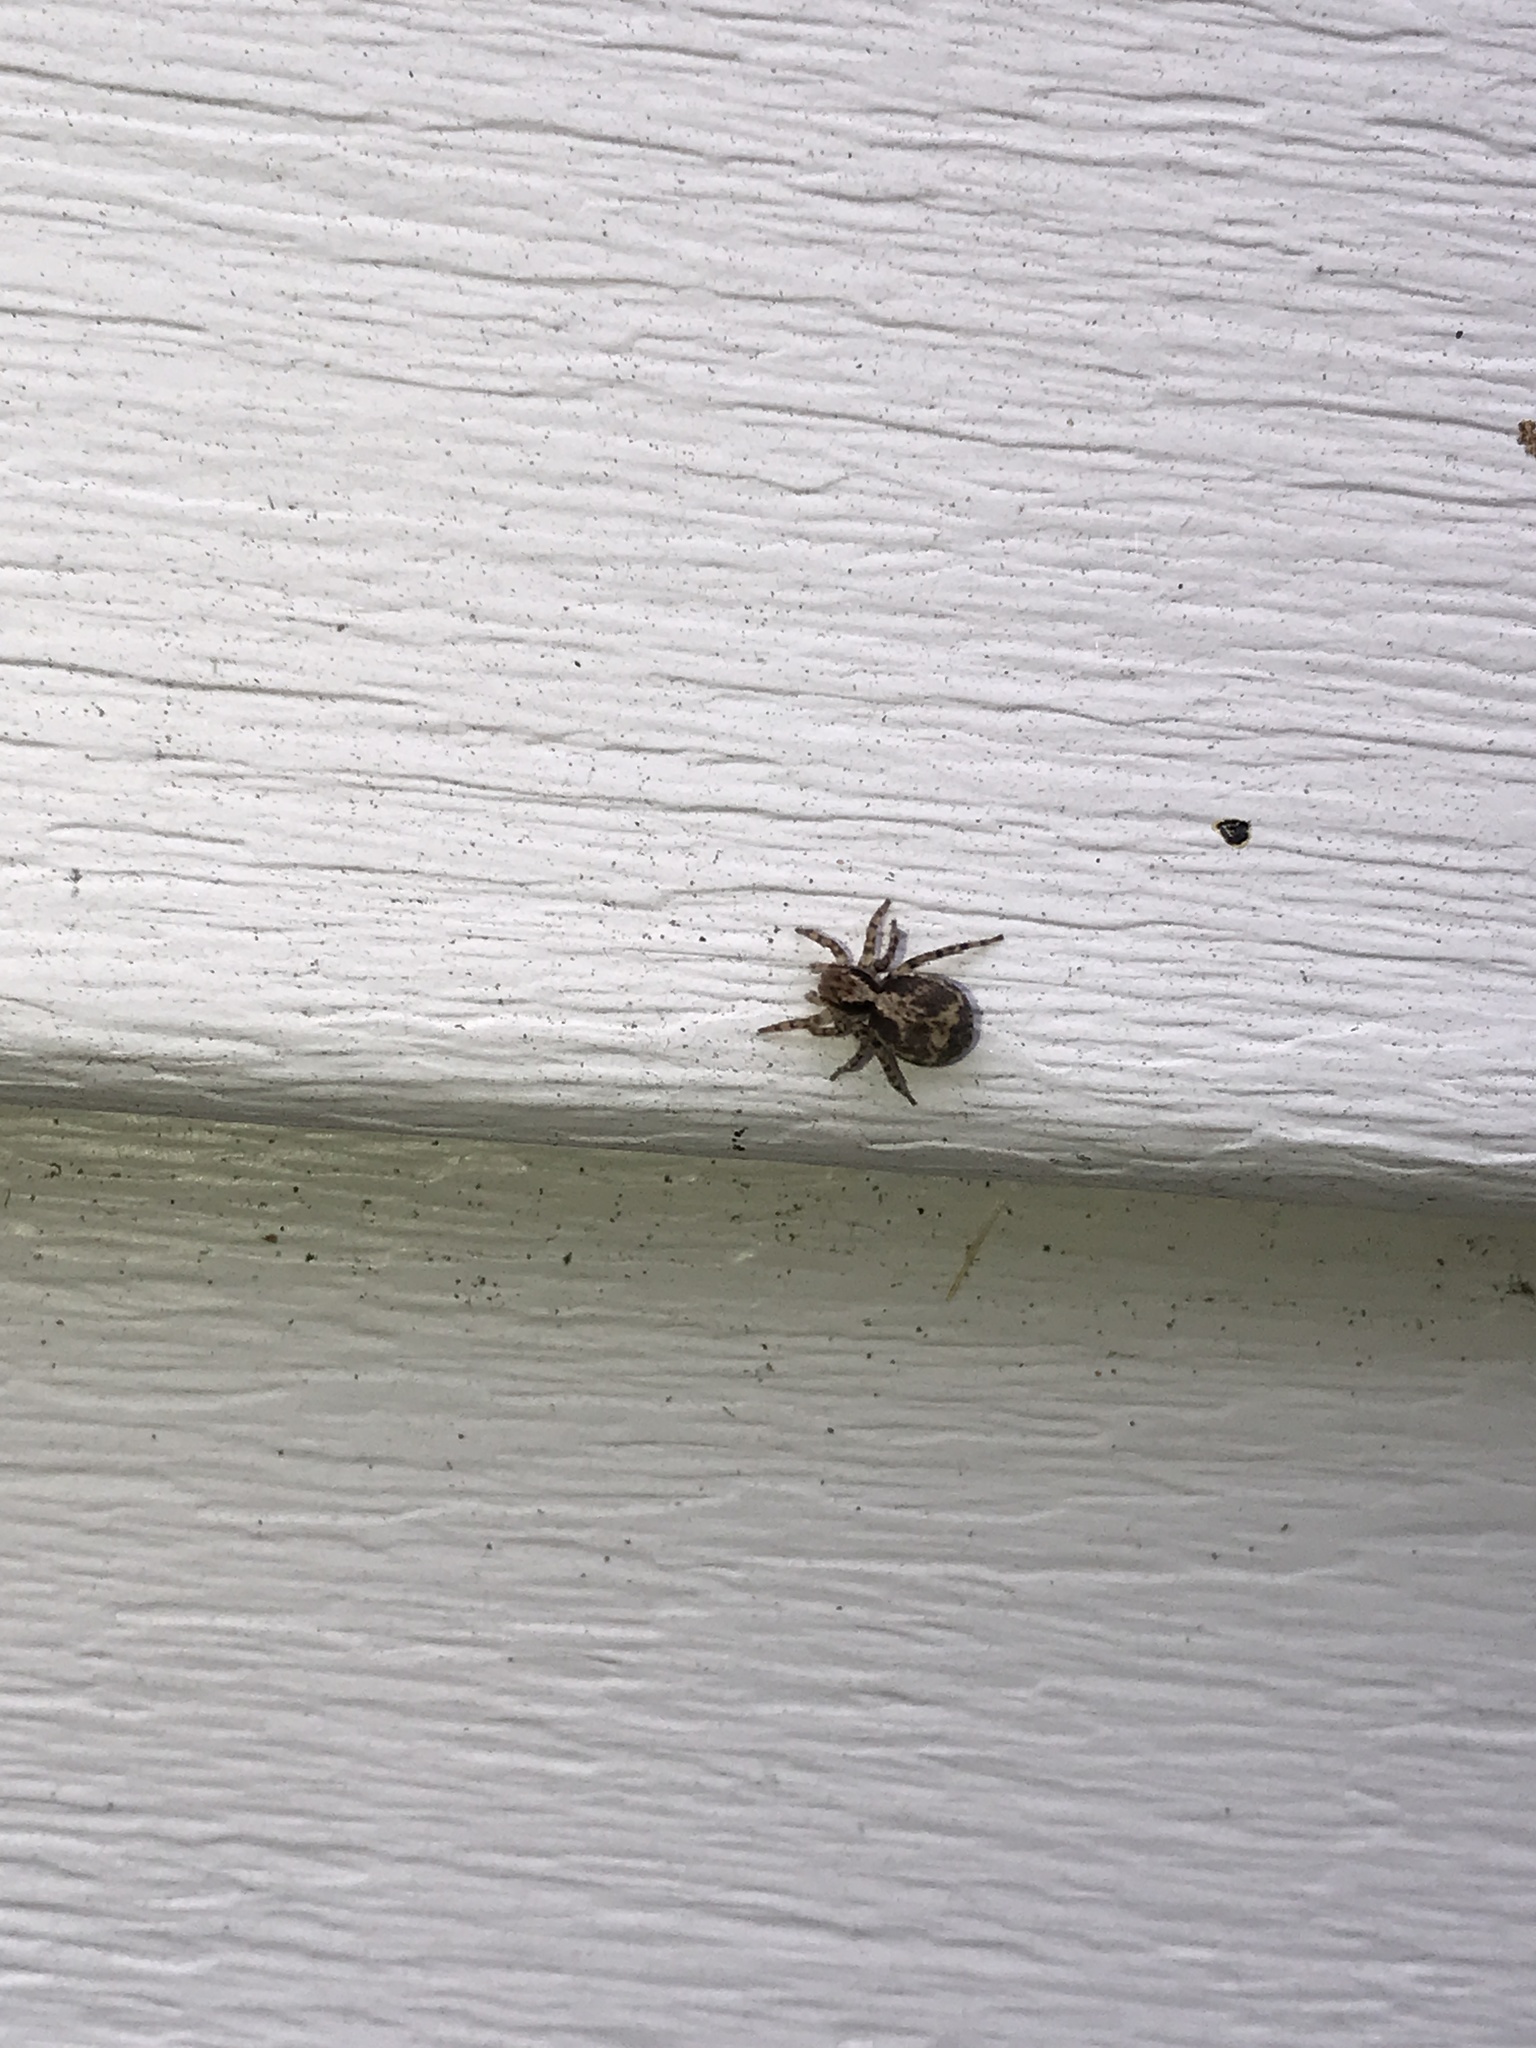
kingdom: Animalia
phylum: Arthropoda
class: Arachnida
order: Araneae
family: Salticidae
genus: Naphrys
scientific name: Naphrys pulex
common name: Flea jumping spider
